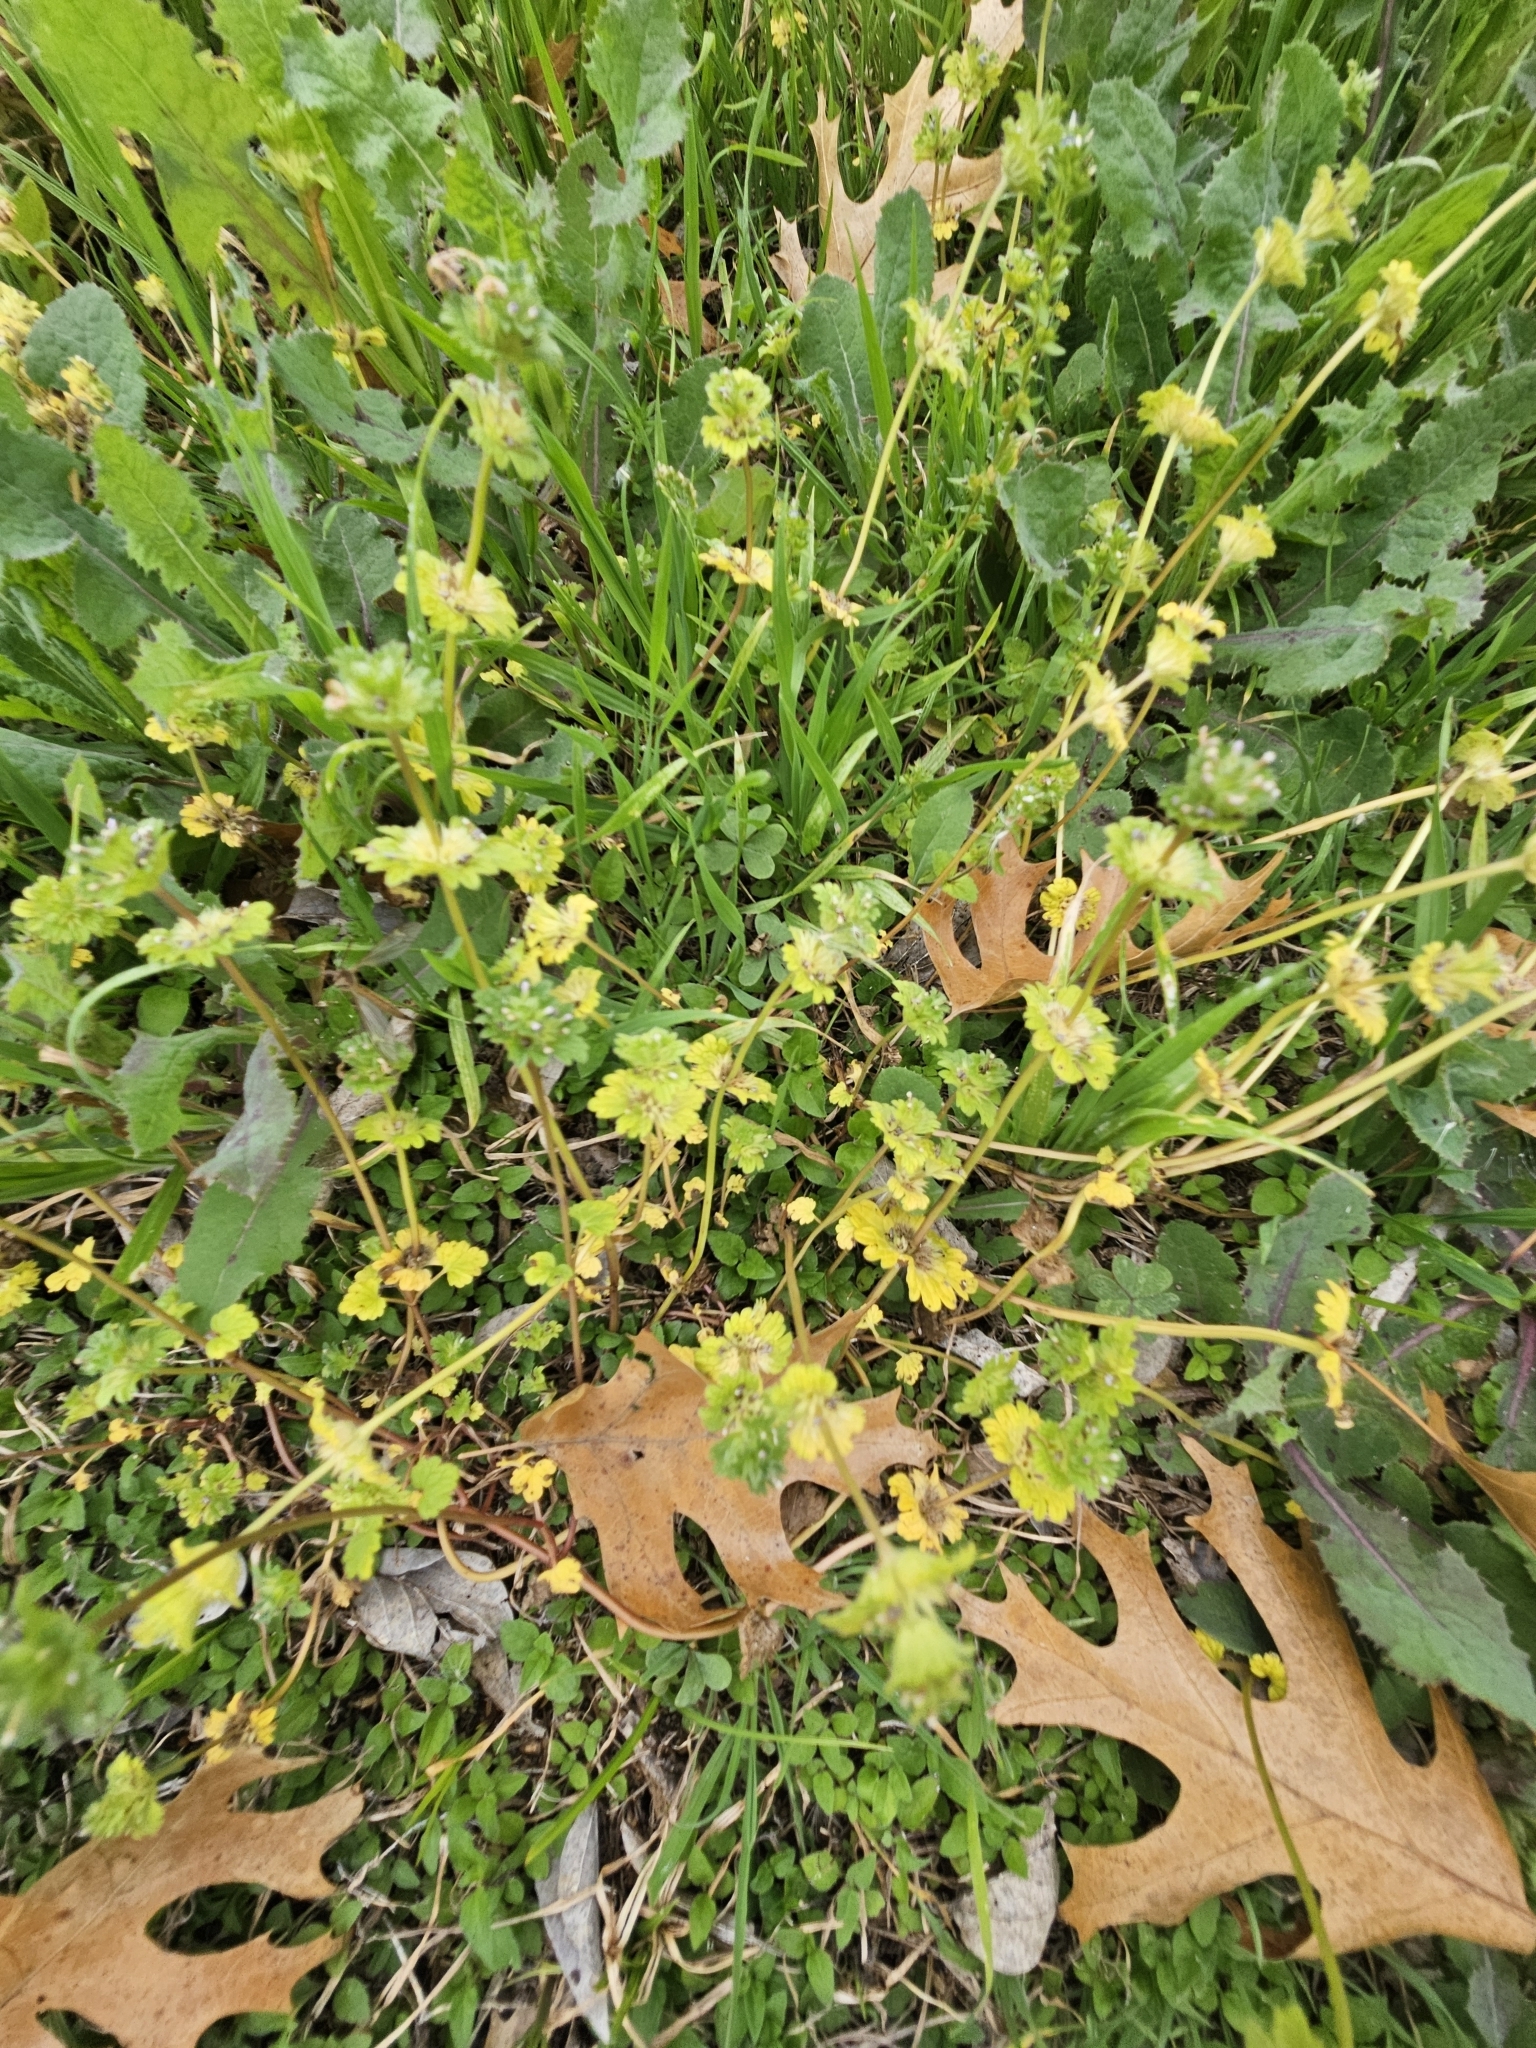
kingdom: Plantae
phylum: Tracheophyta
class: Magnoliopsida
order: Lamiales
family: Lamiaceae
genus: Lamium
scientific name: Lamium amplexicaule
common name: Henbit dead-nettle
